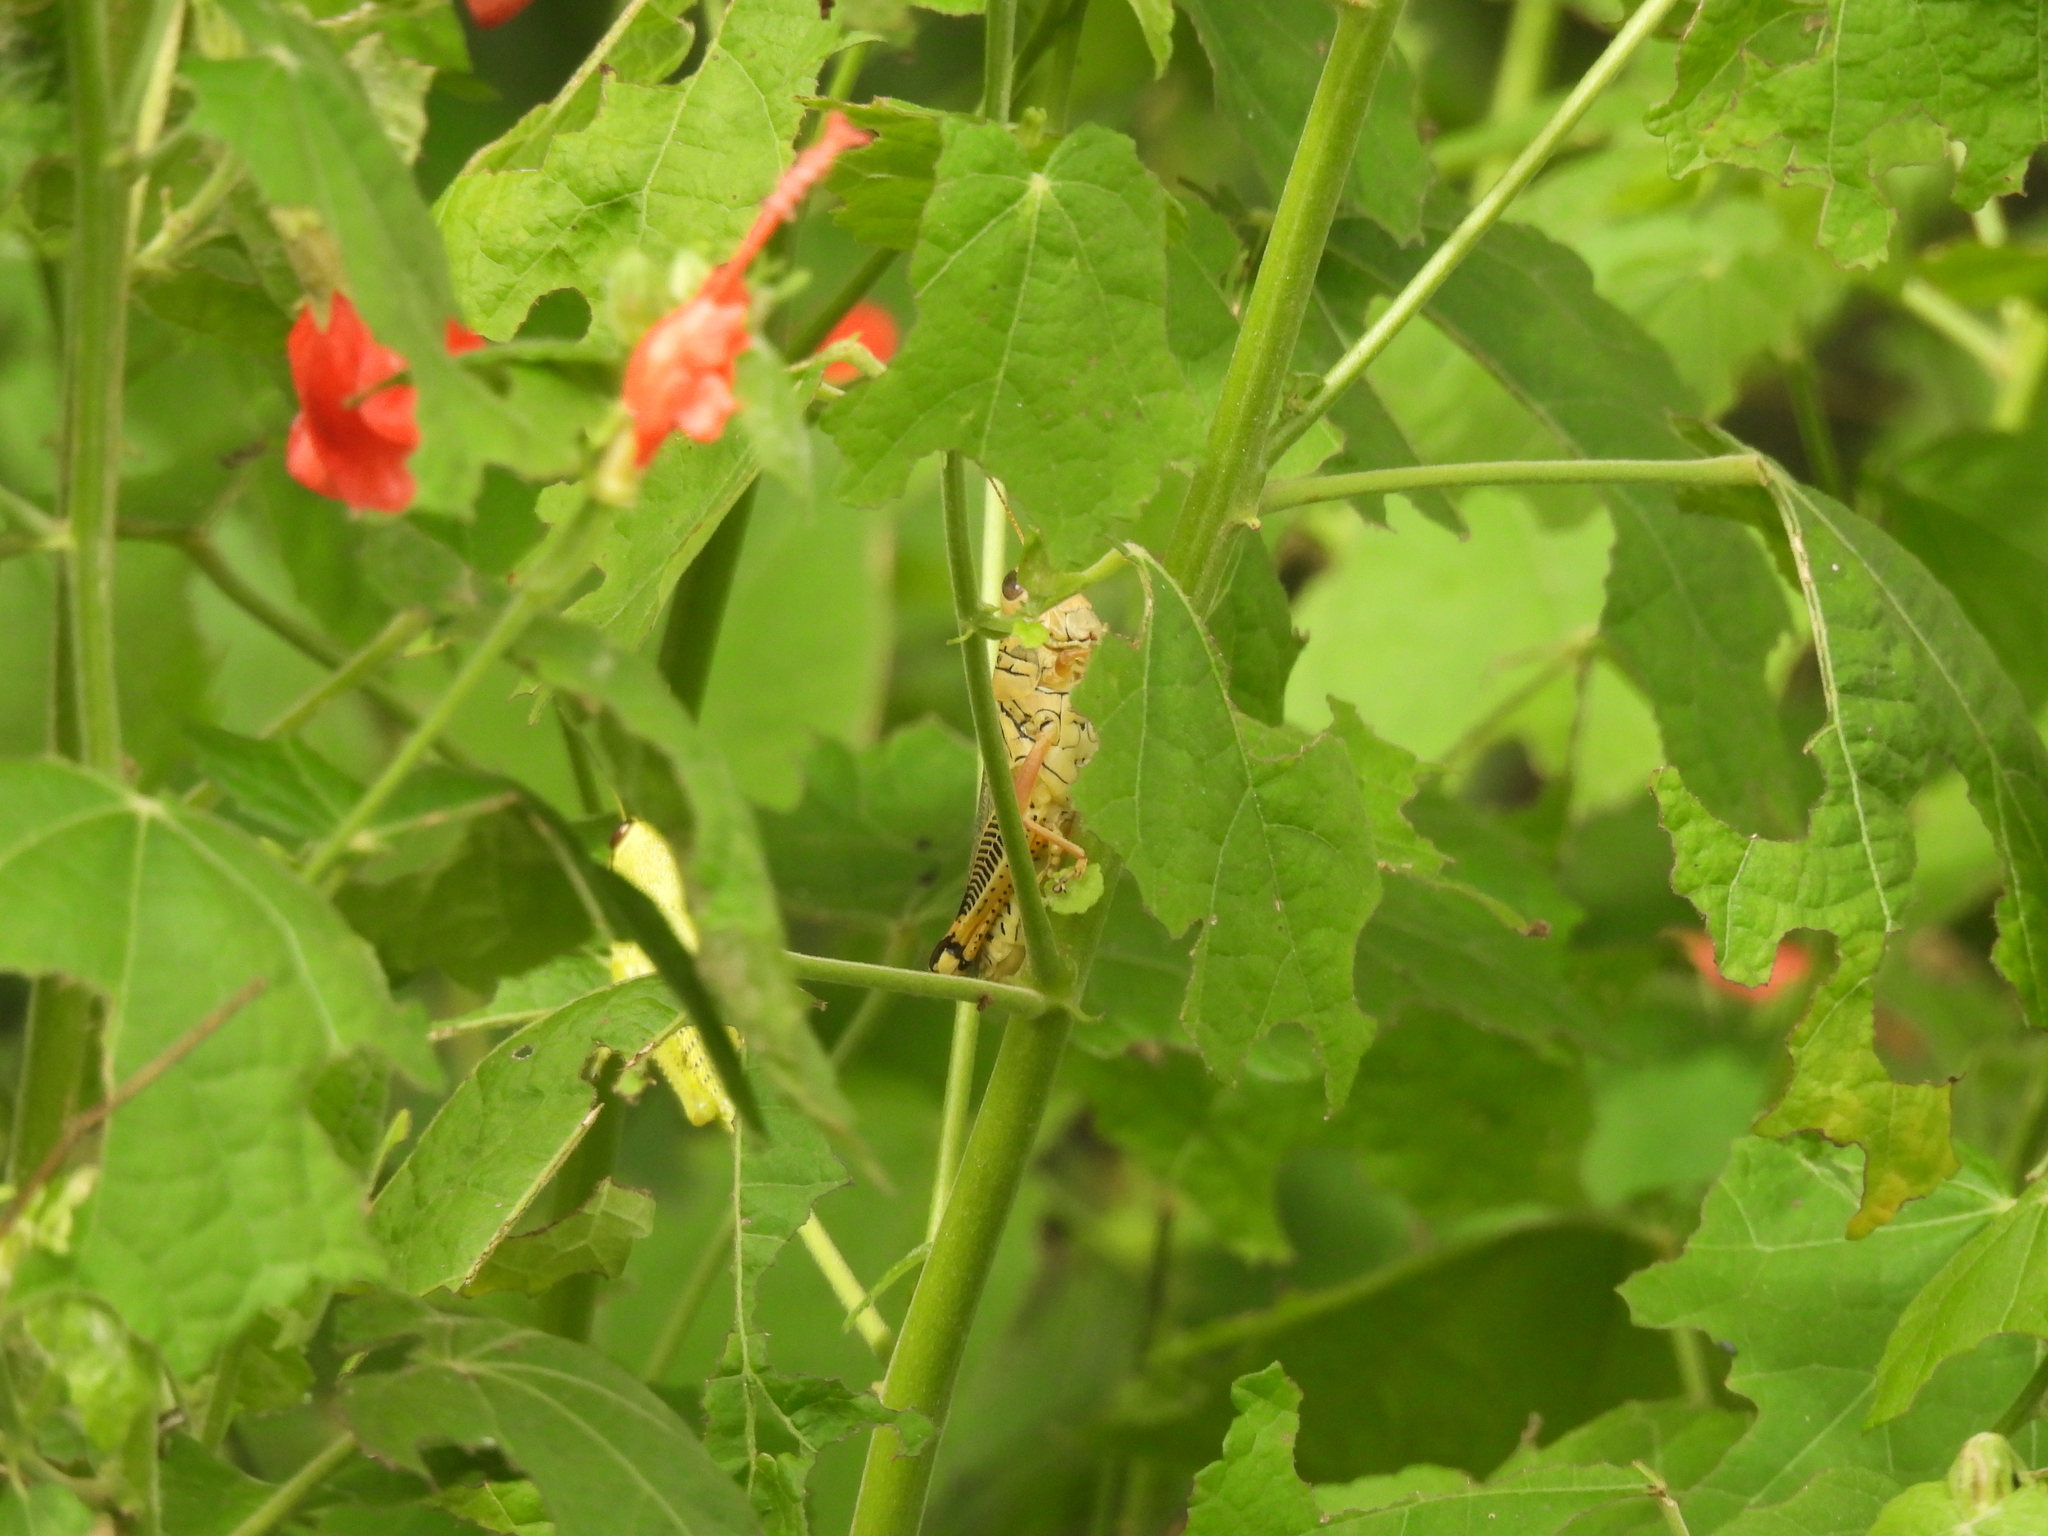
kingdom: Animalia
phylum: Arthropoda
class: Insecta
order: Orthoptera
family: Acrididae
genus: Melanoplus
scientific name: Melanoplus differentialis
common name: Differential grasshopper
